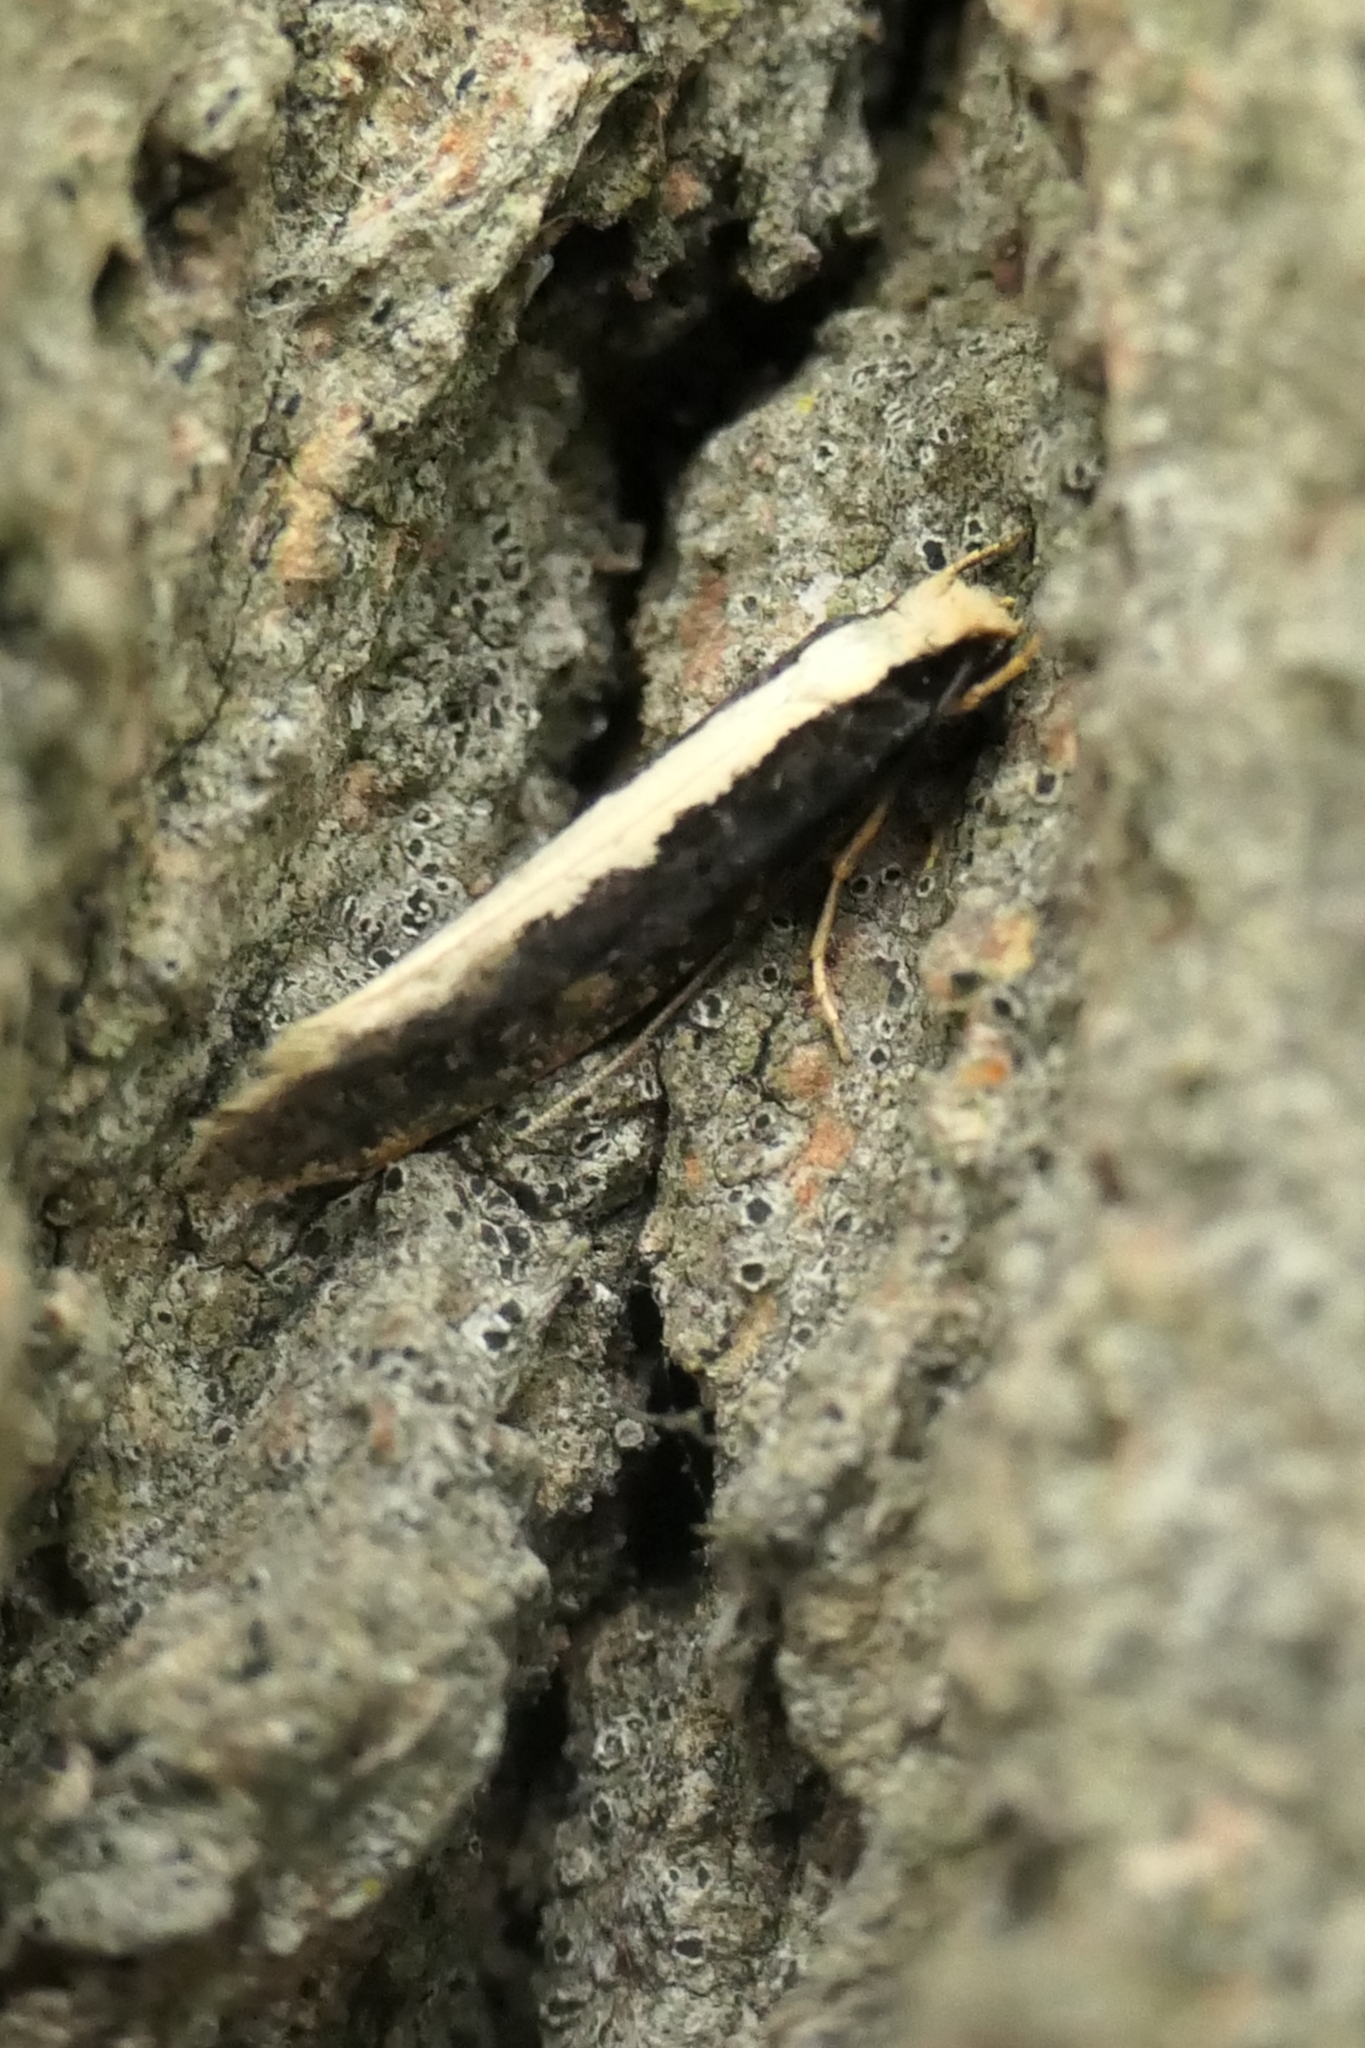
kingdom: Animalia
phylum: Arthropoda
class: Insecta
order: Lepidoptera
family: Tineidae
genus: Monopis
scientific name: Monopis ethelella
